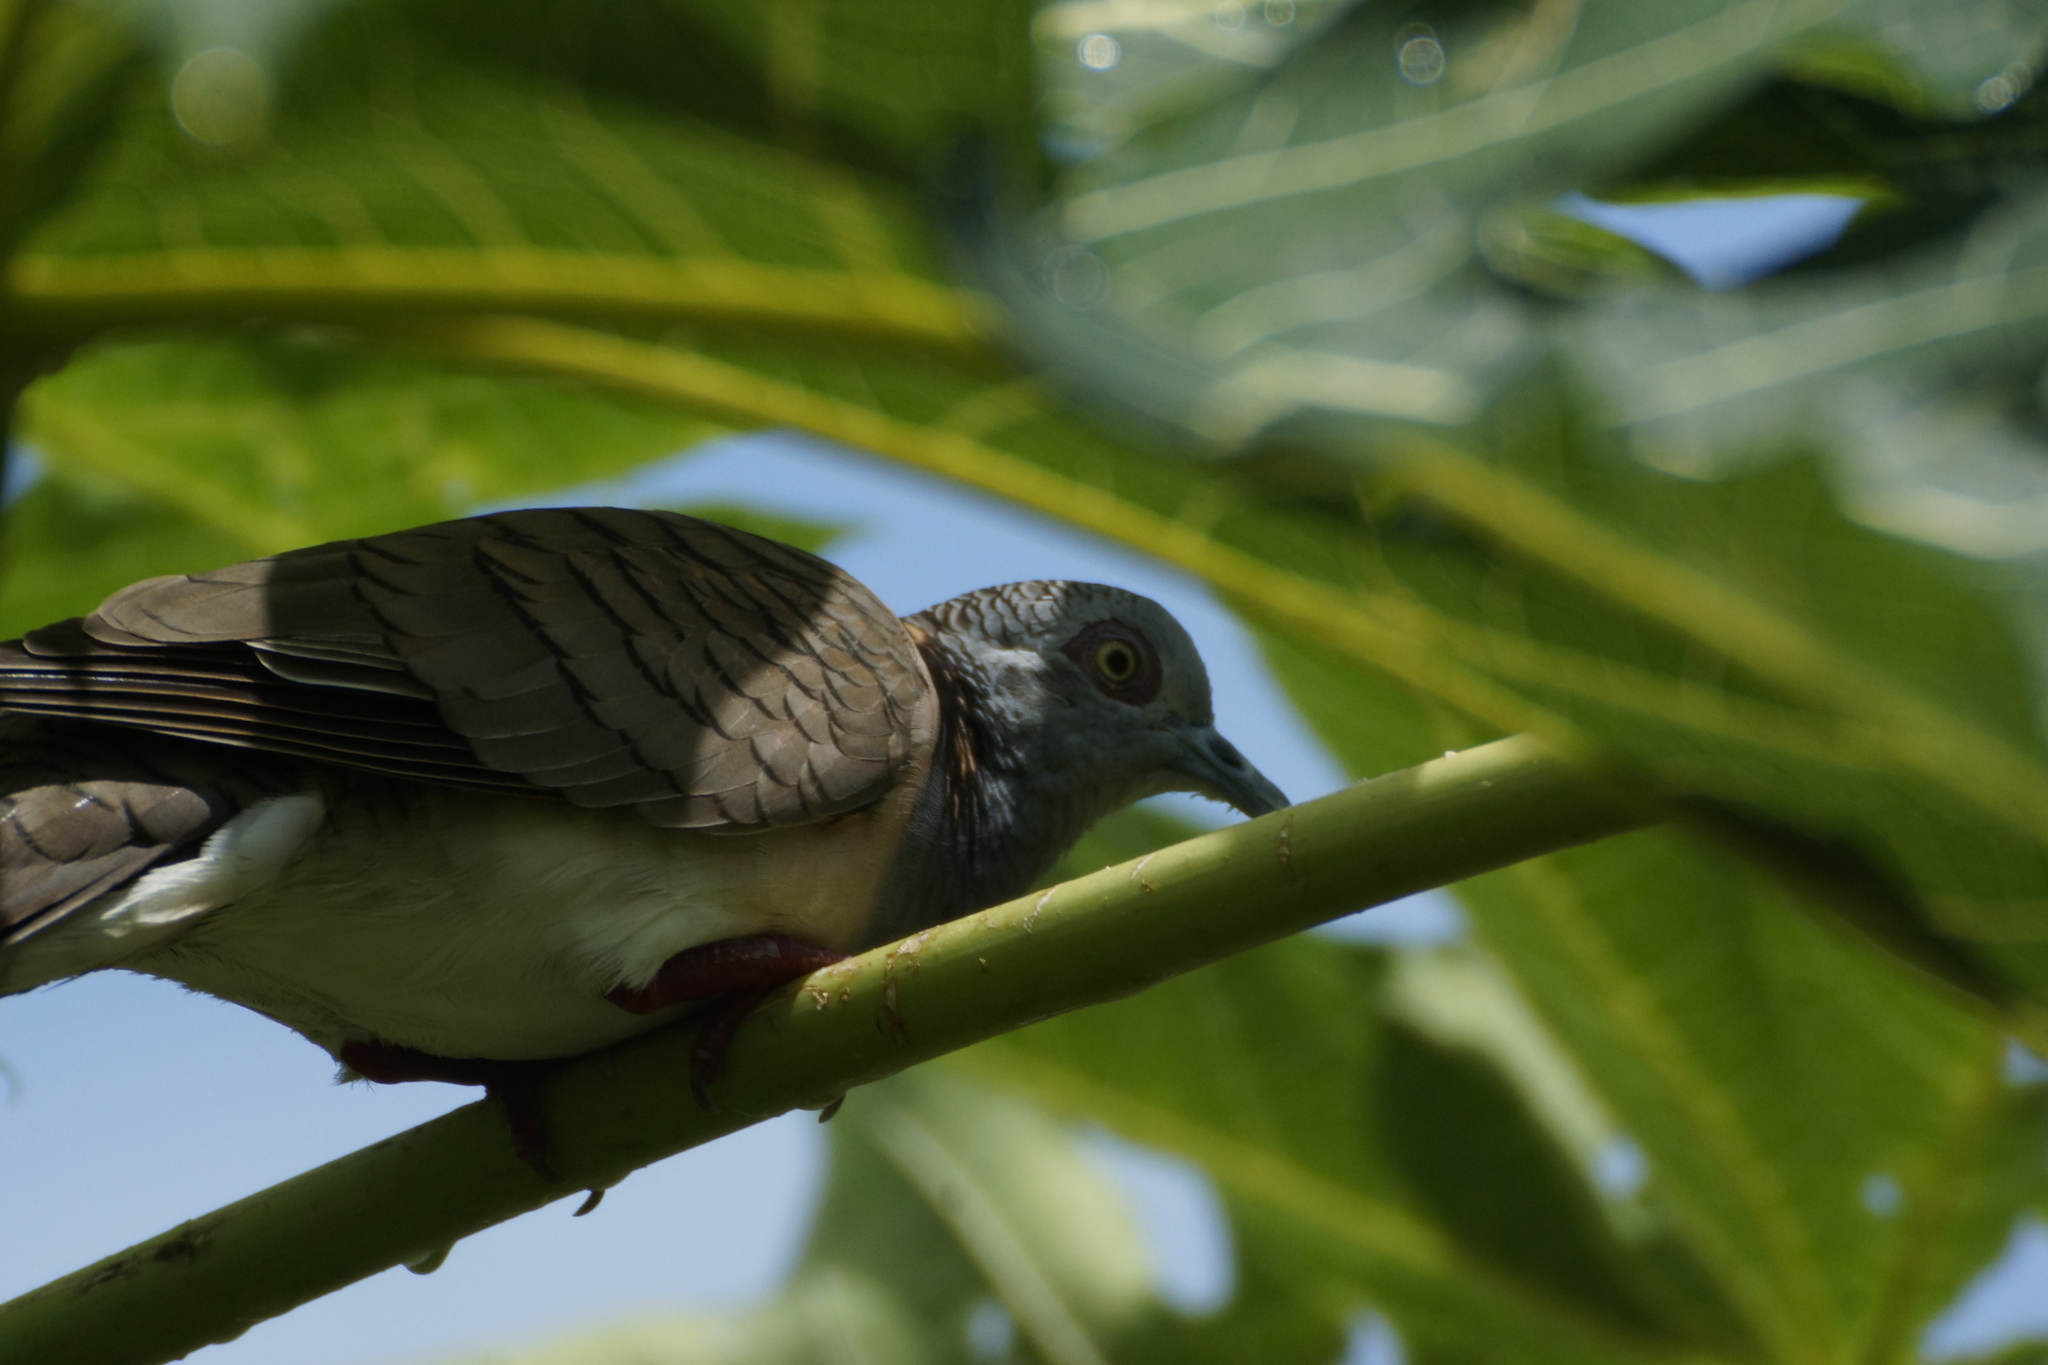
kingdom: Animalia
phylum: Chordata
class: Aves
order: Columbiformes
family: Columbidae
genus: Geopelia
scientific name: Geopelia humeralis
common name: Bar-shouldered dove
